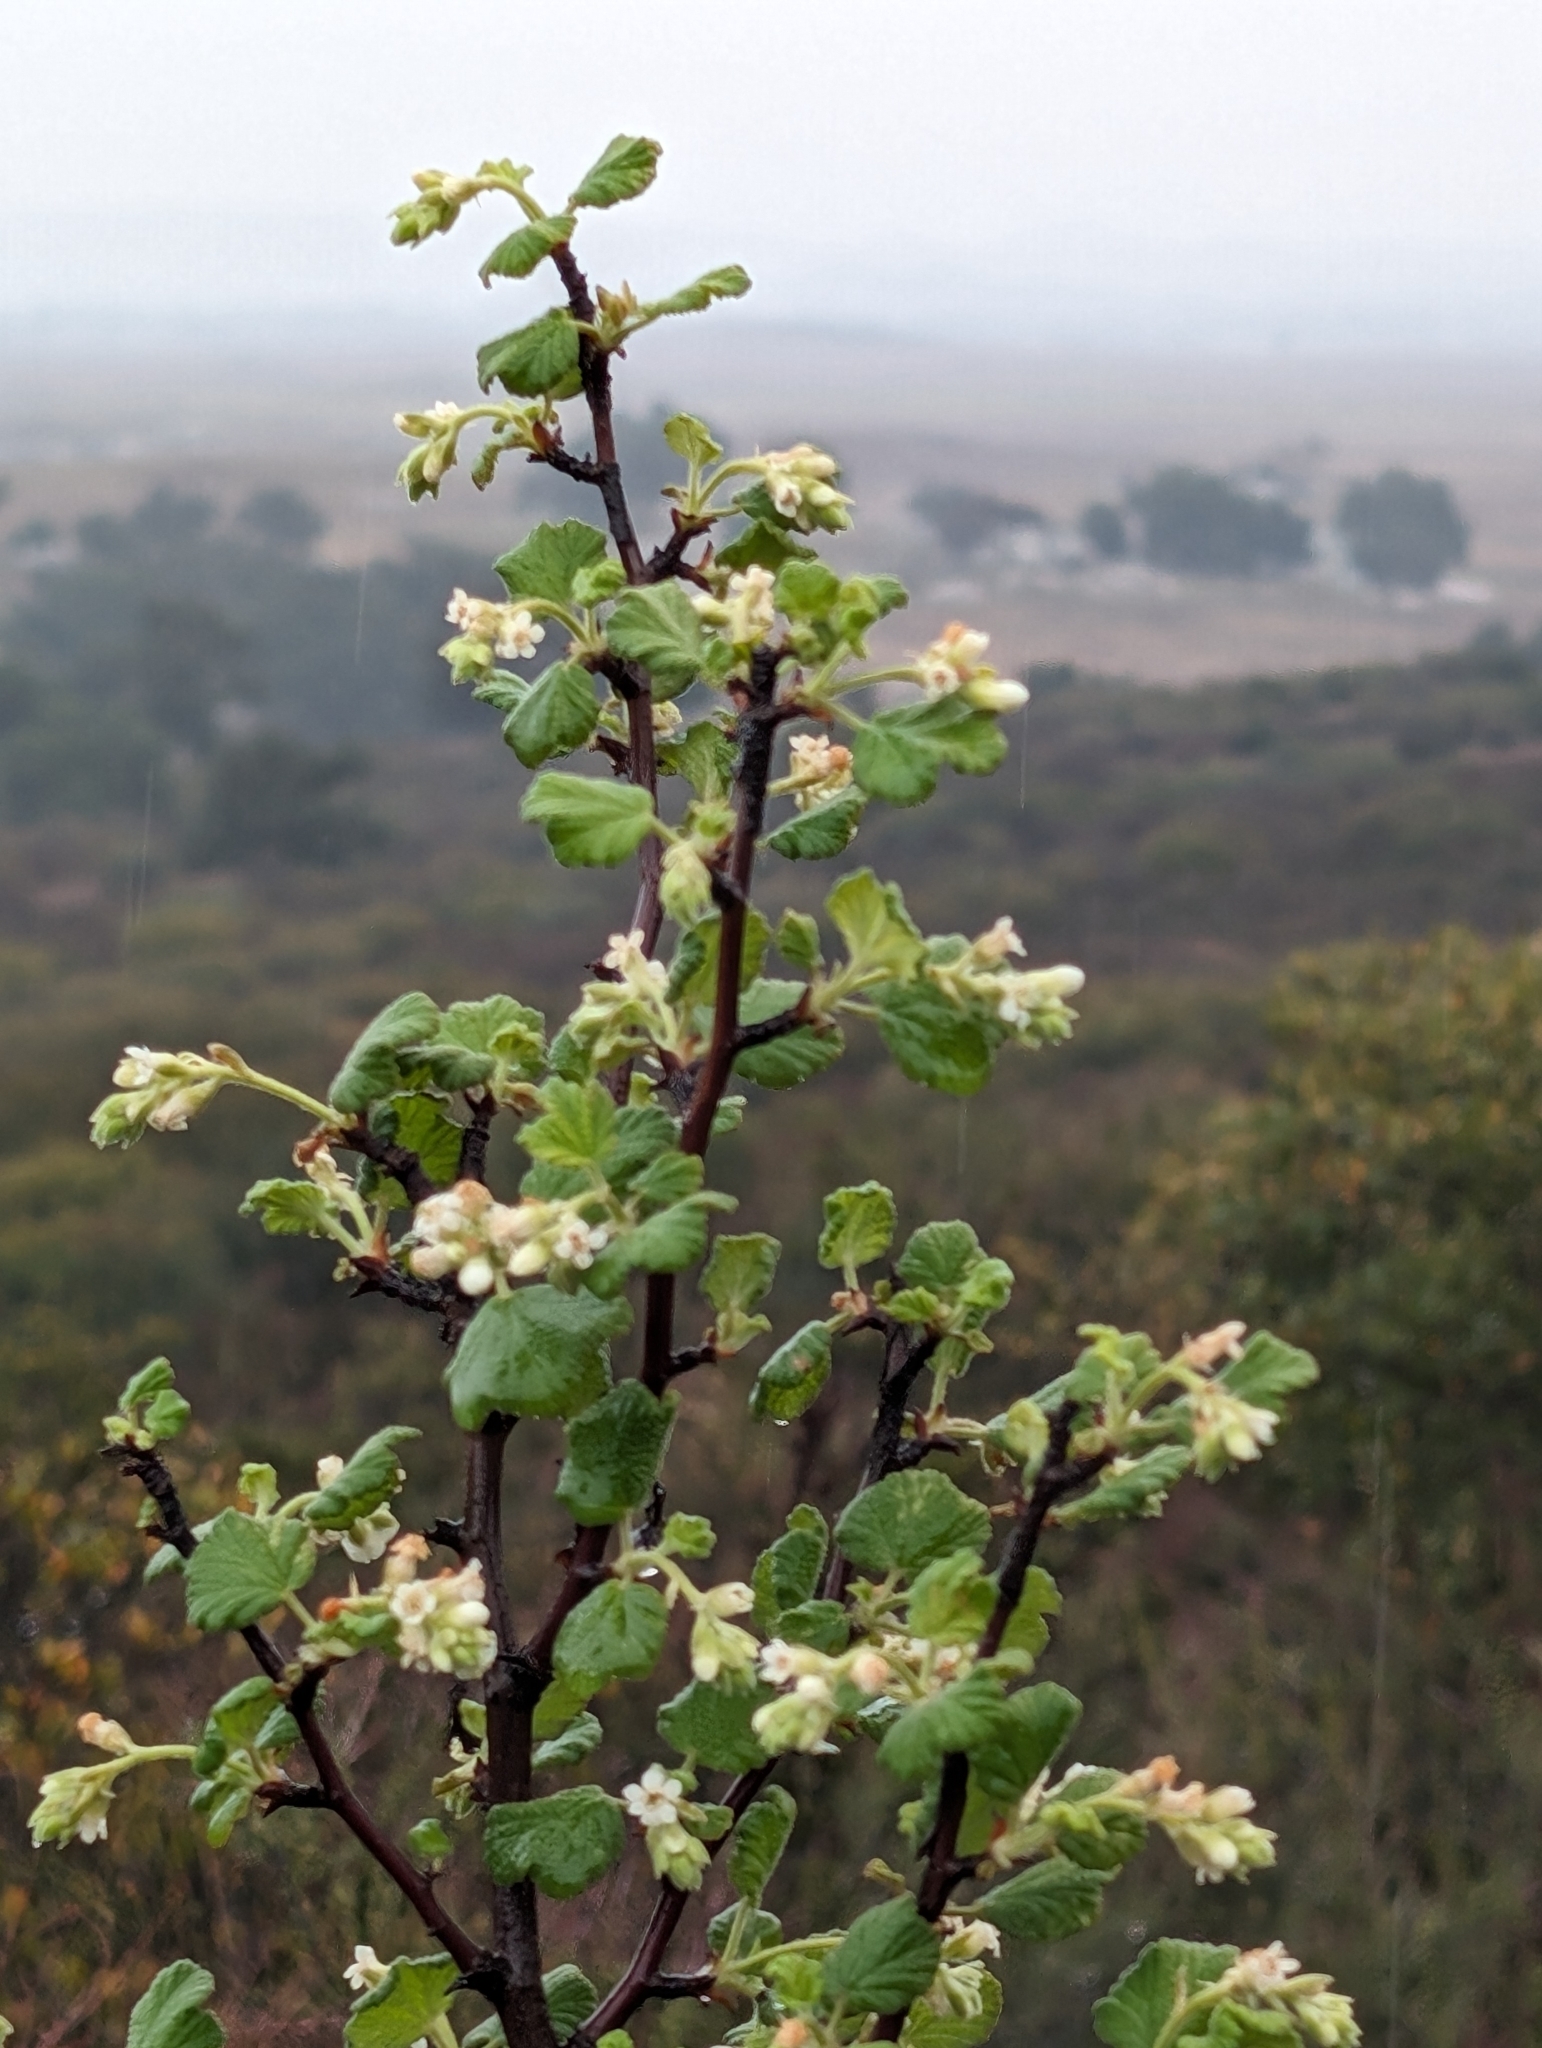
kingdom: Plantae
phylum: Tracheophyta
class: Magnoliopsida
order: Saxifragales
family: Grossulariaceae
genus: Ribes
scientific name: Ribes indecorum
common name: White-flower currant
